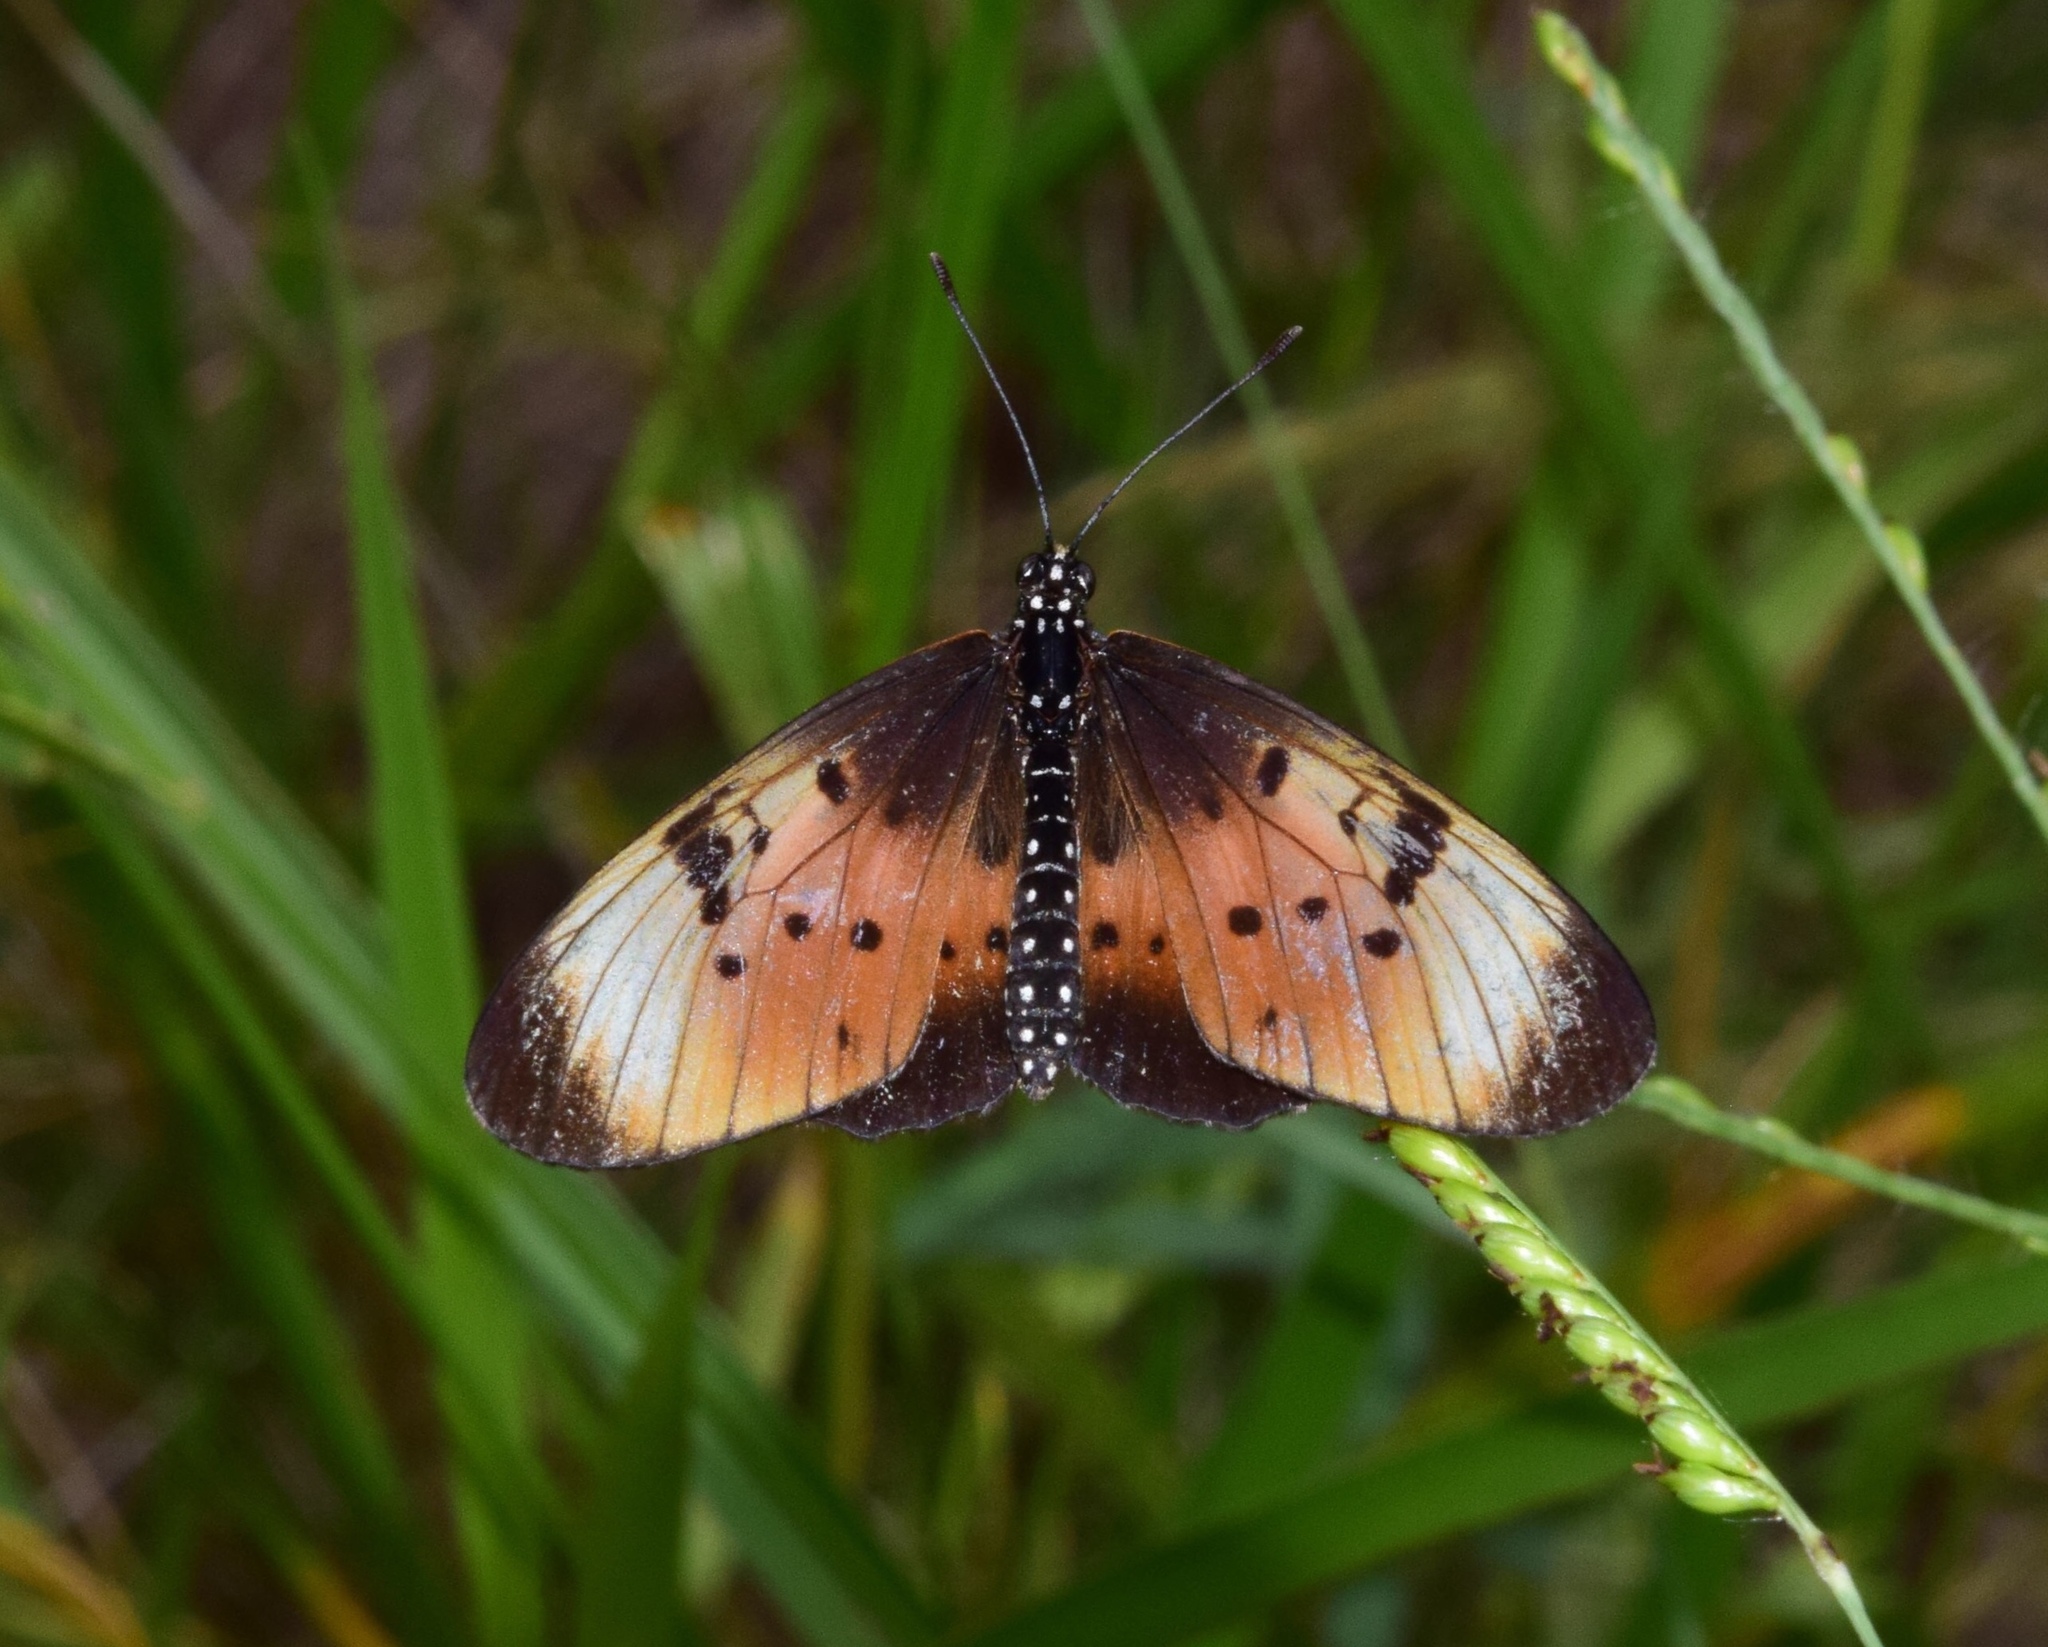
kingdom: Animalia
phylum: Arthropoda
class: Insecta
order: Lepidoptera
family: Nymphalidae
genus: Stephenia
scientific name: Stephenia
